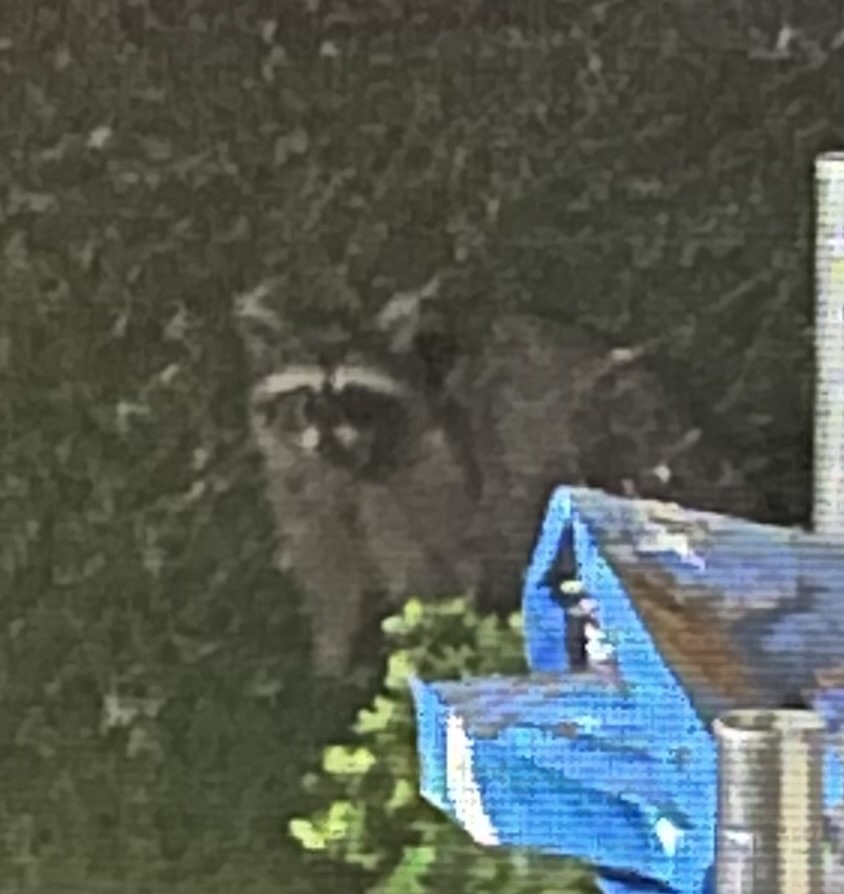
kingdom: Animalia
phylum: Chordata
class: Mammalia
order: Carnivora
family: Procyonidae
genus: Procyon
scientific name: Procyon lotor
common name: Raccoon
